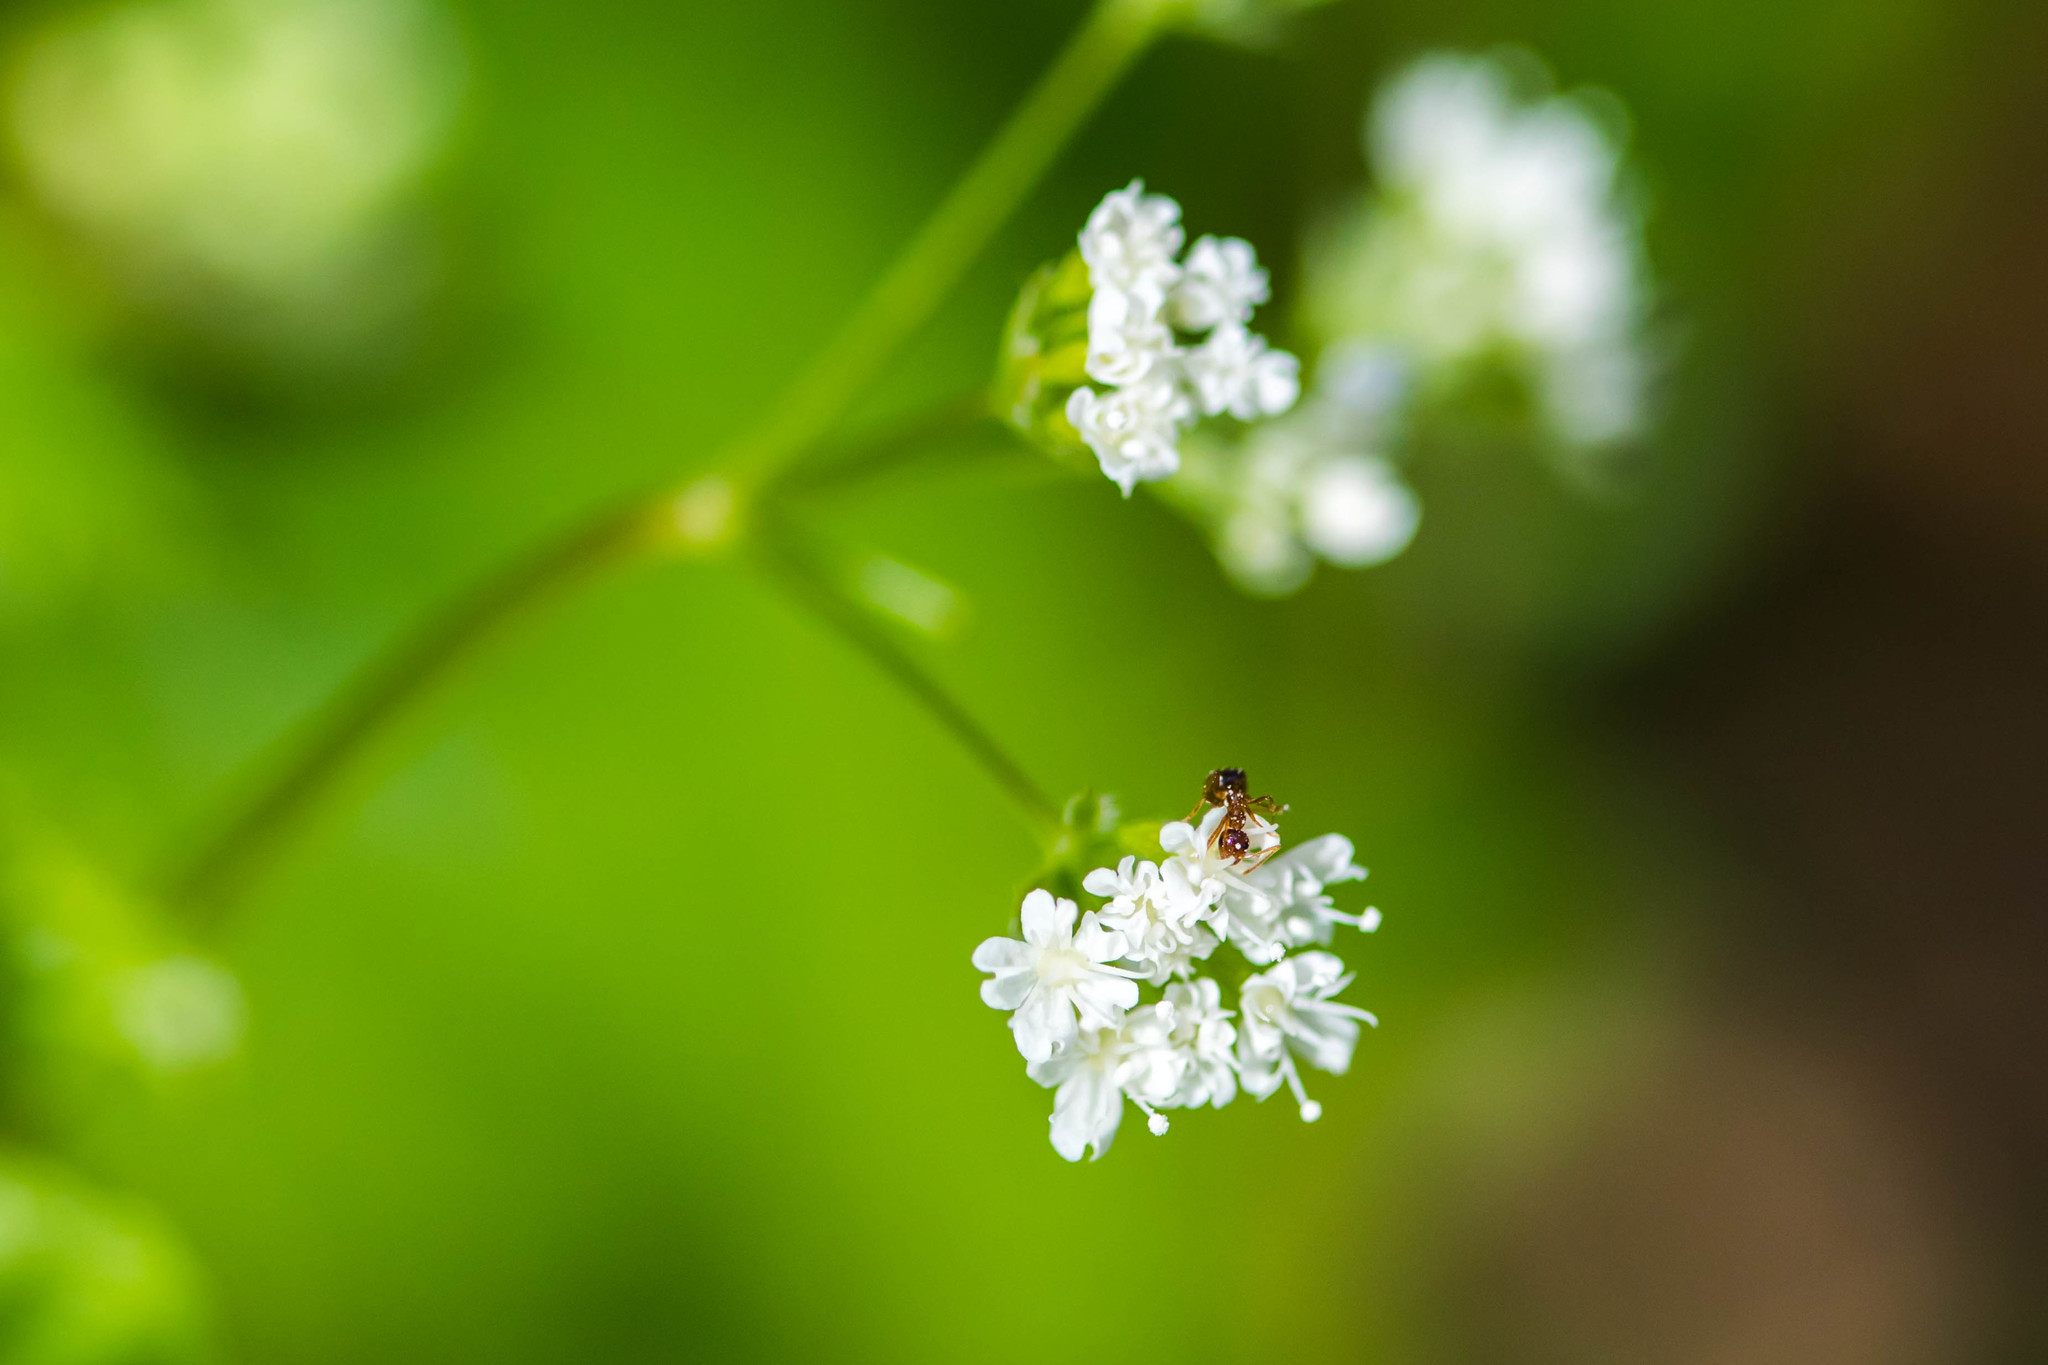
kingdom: Animalia
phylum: Arthropoda
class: Insecta
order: Hymenoptera
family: Formicidae
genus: Prenolepis
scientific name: Prenolepis imparis
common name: Small honey ant
